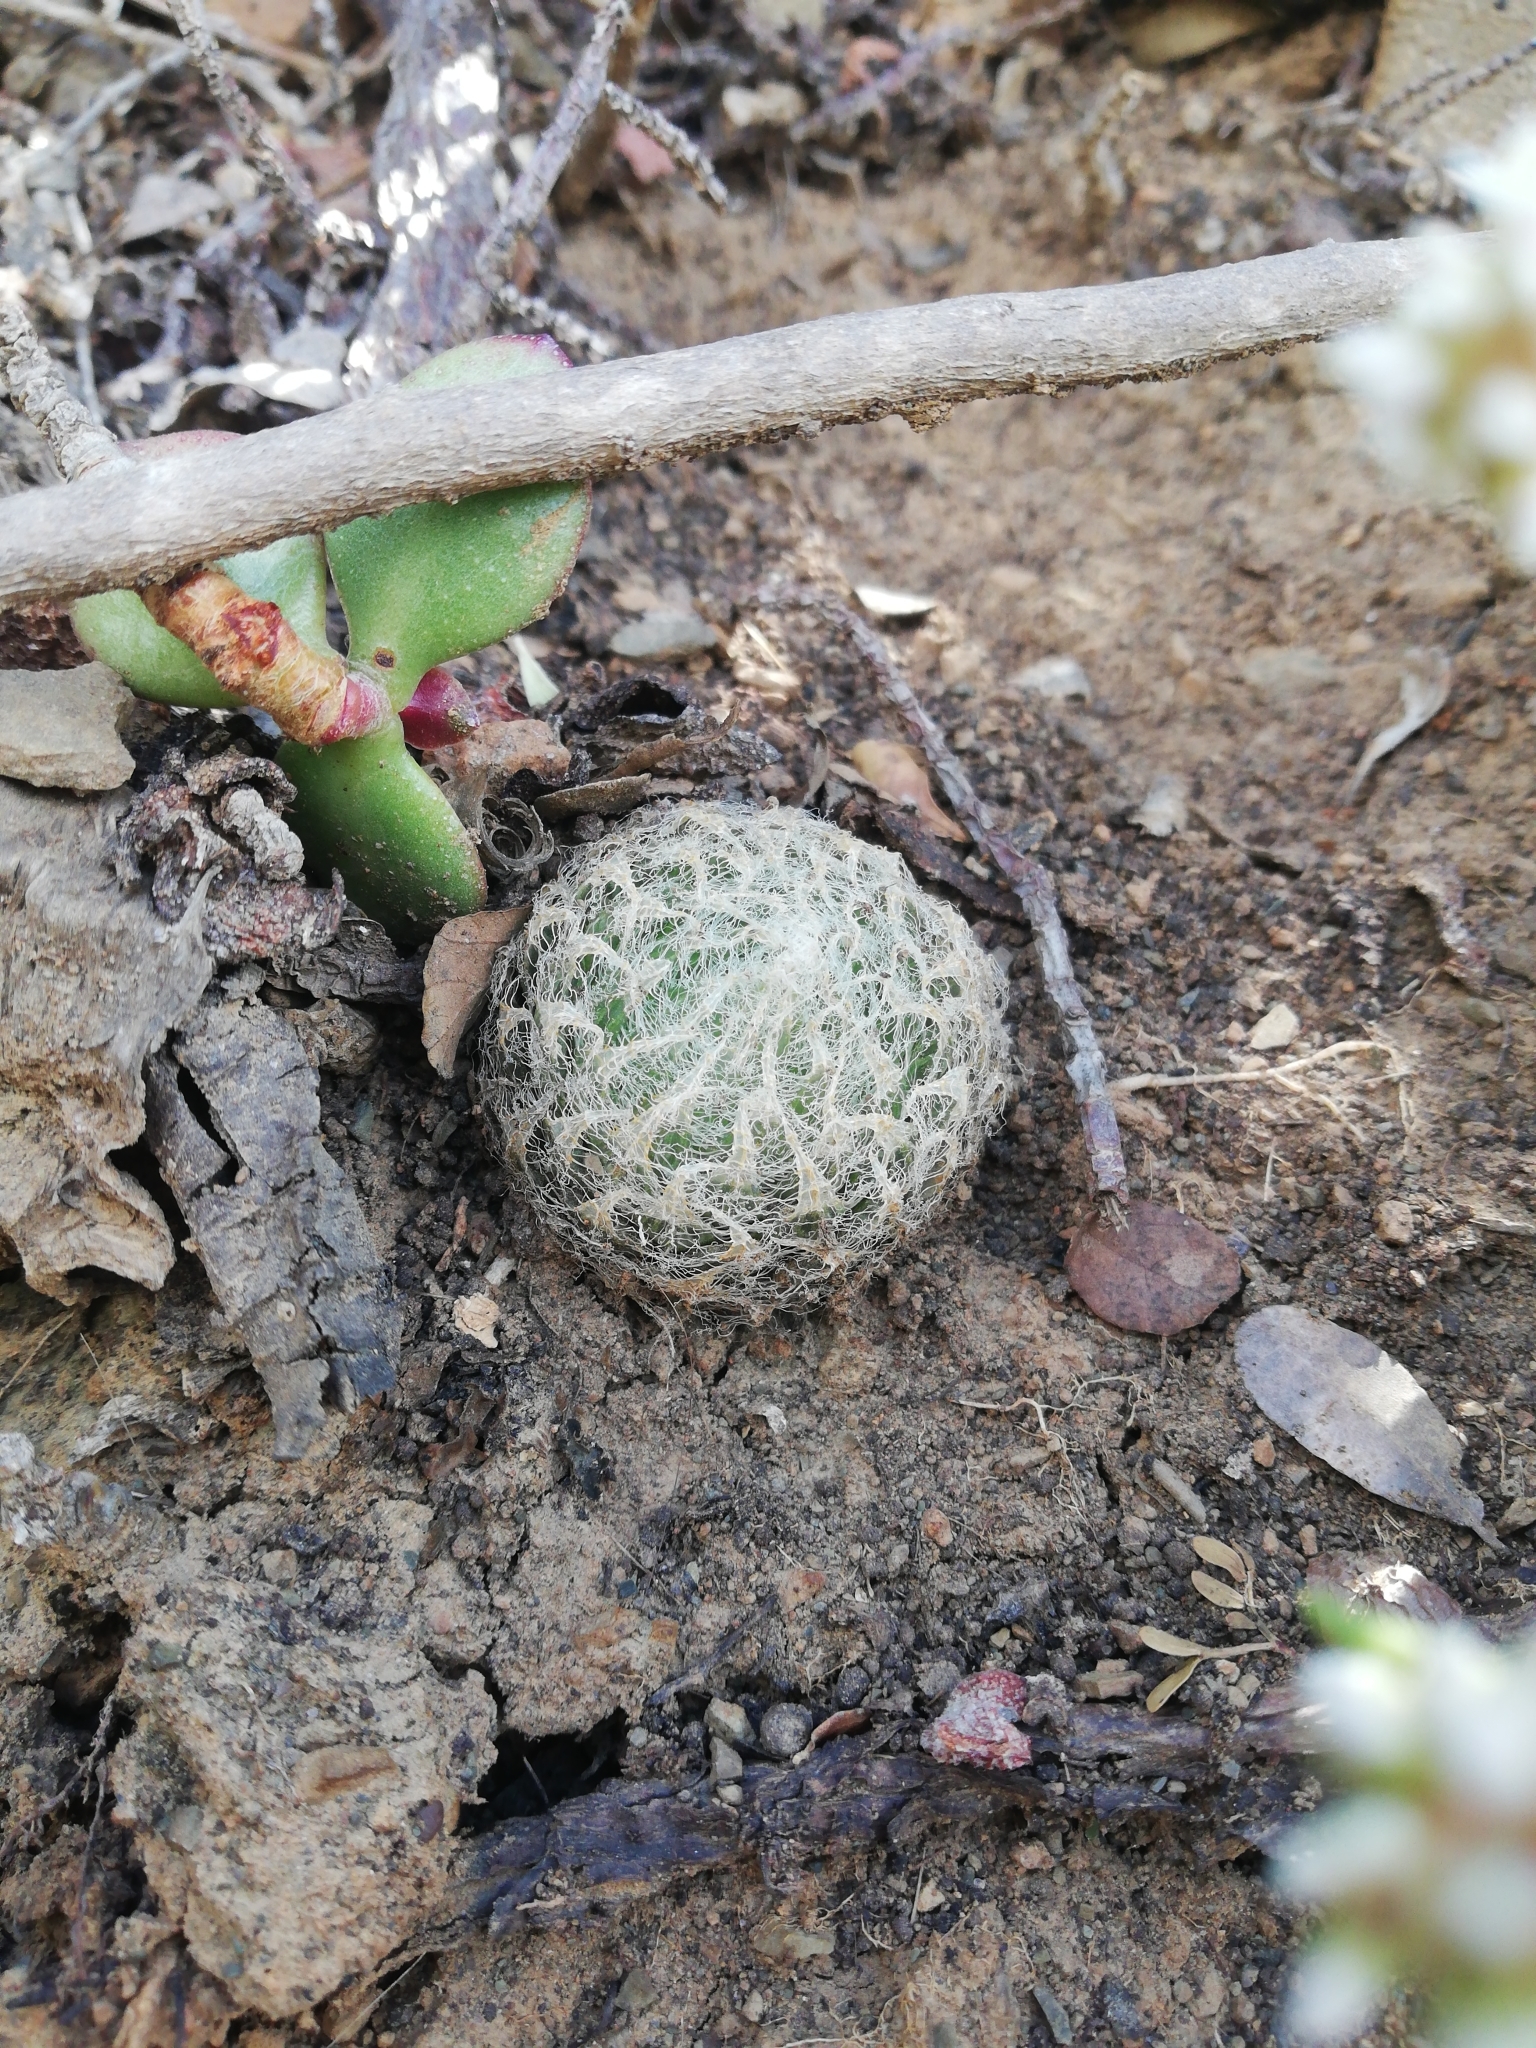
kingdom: Plantae
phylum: Tracheophyta
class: Liliopsida
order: Asparagales
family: Asphodelaceae
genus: Haworthia
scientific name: Haworthia bolusii
